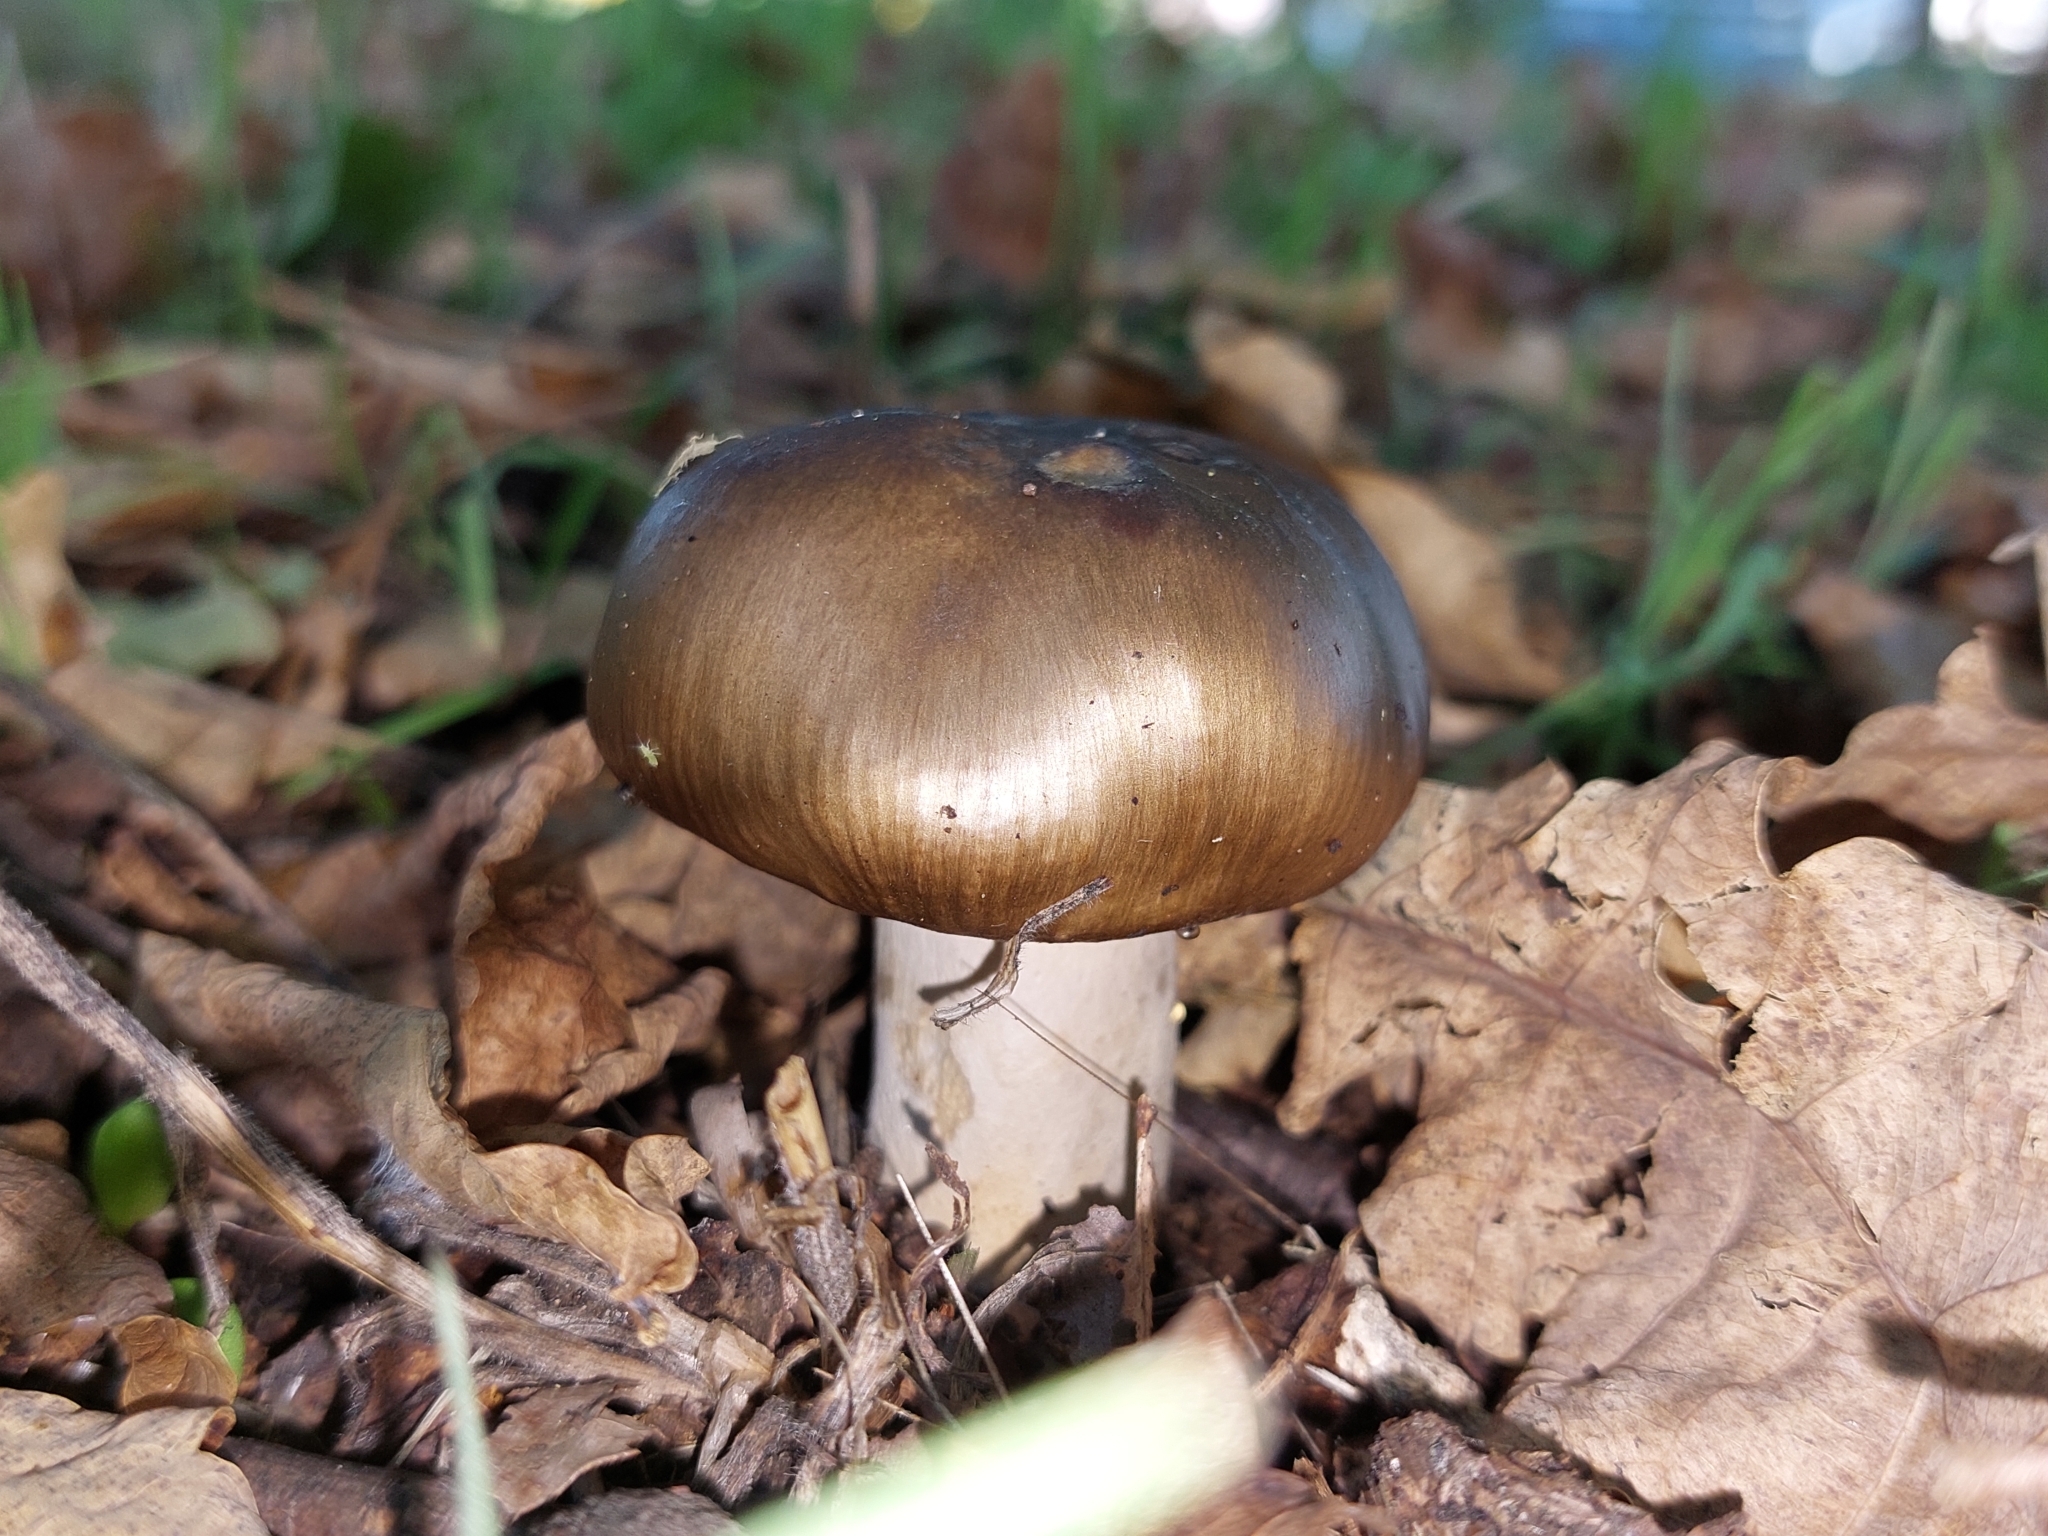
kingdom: Fungi
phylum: Basidiomycota
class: Agaricomycetes
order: Russulales
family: Russulaceae
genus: Russula
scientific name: Russula amoenolens
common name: Camembert brittlegill
